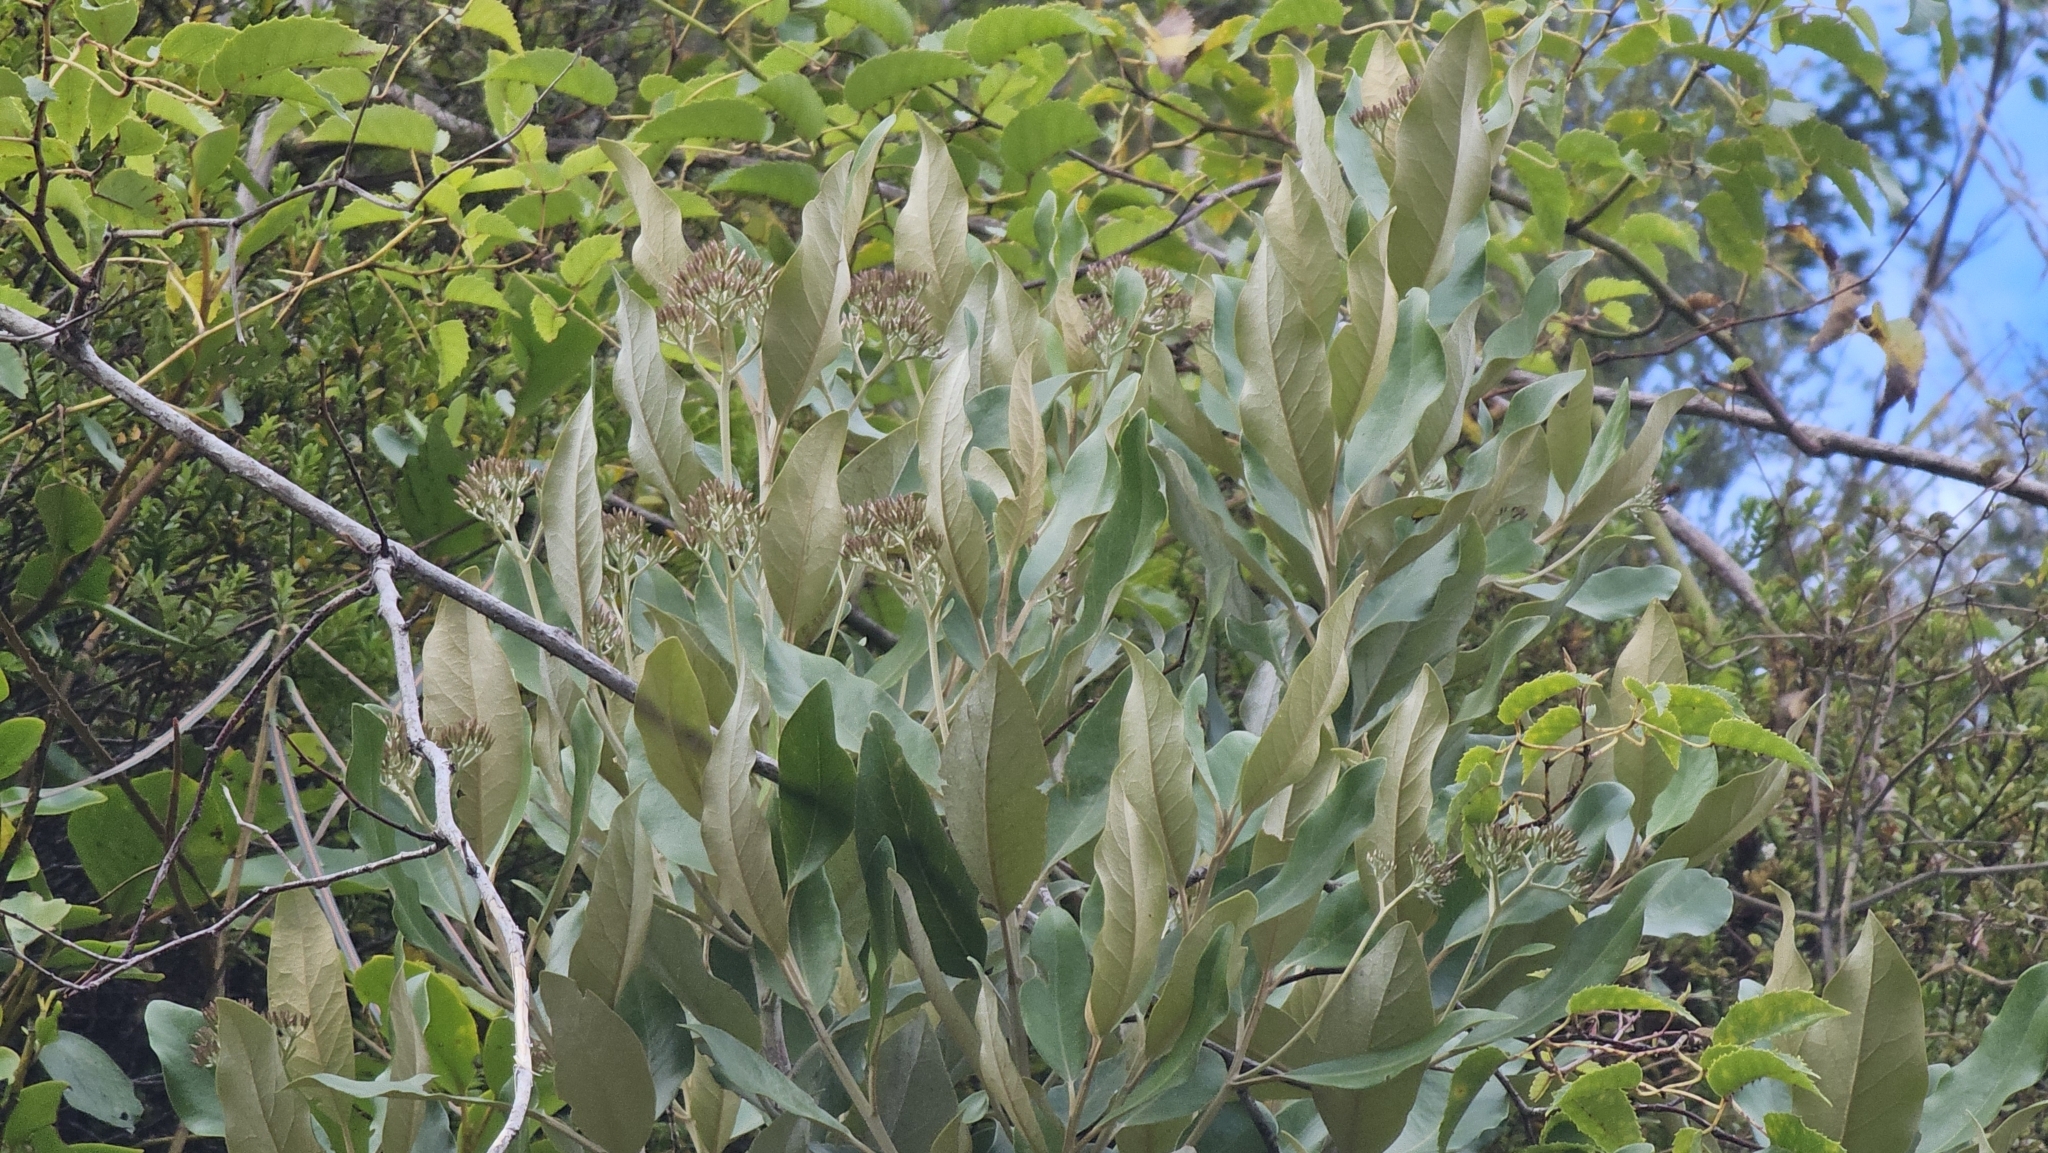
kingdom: Plantae
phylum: Tracheophyta
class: Magnoliopsida
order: Asterales
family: Asteraceae
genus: Olearia
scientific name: Olearia avicenniifolia
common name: Mangrove-leaf daisybush
